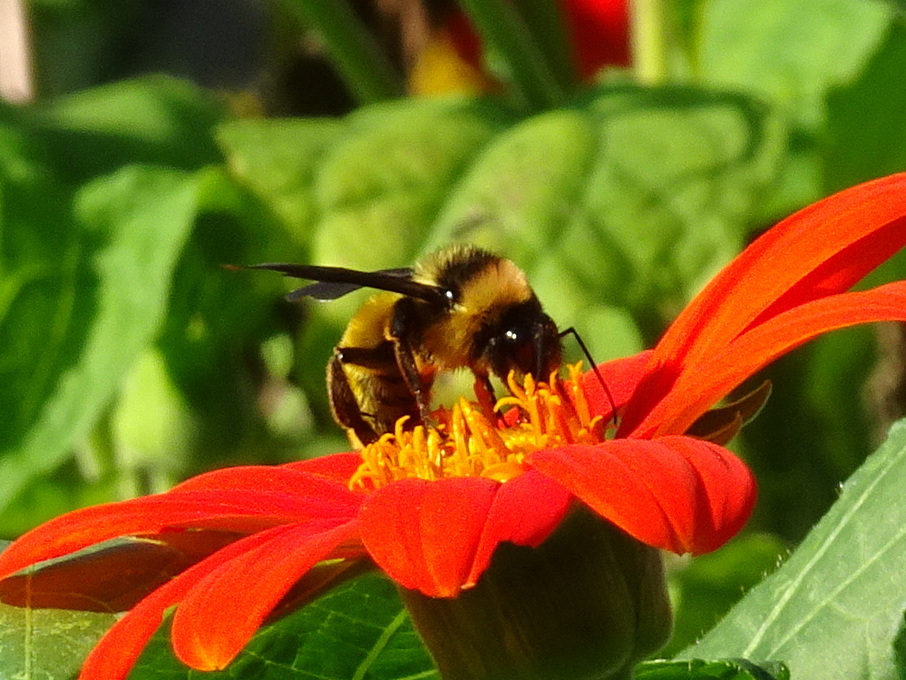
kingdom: Animalia
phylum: Arthropoda
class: Insecta
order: Hymenoptera
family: Apidae
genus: Bombus
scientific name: Bombus pensylvanicus
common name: Bumble bee
